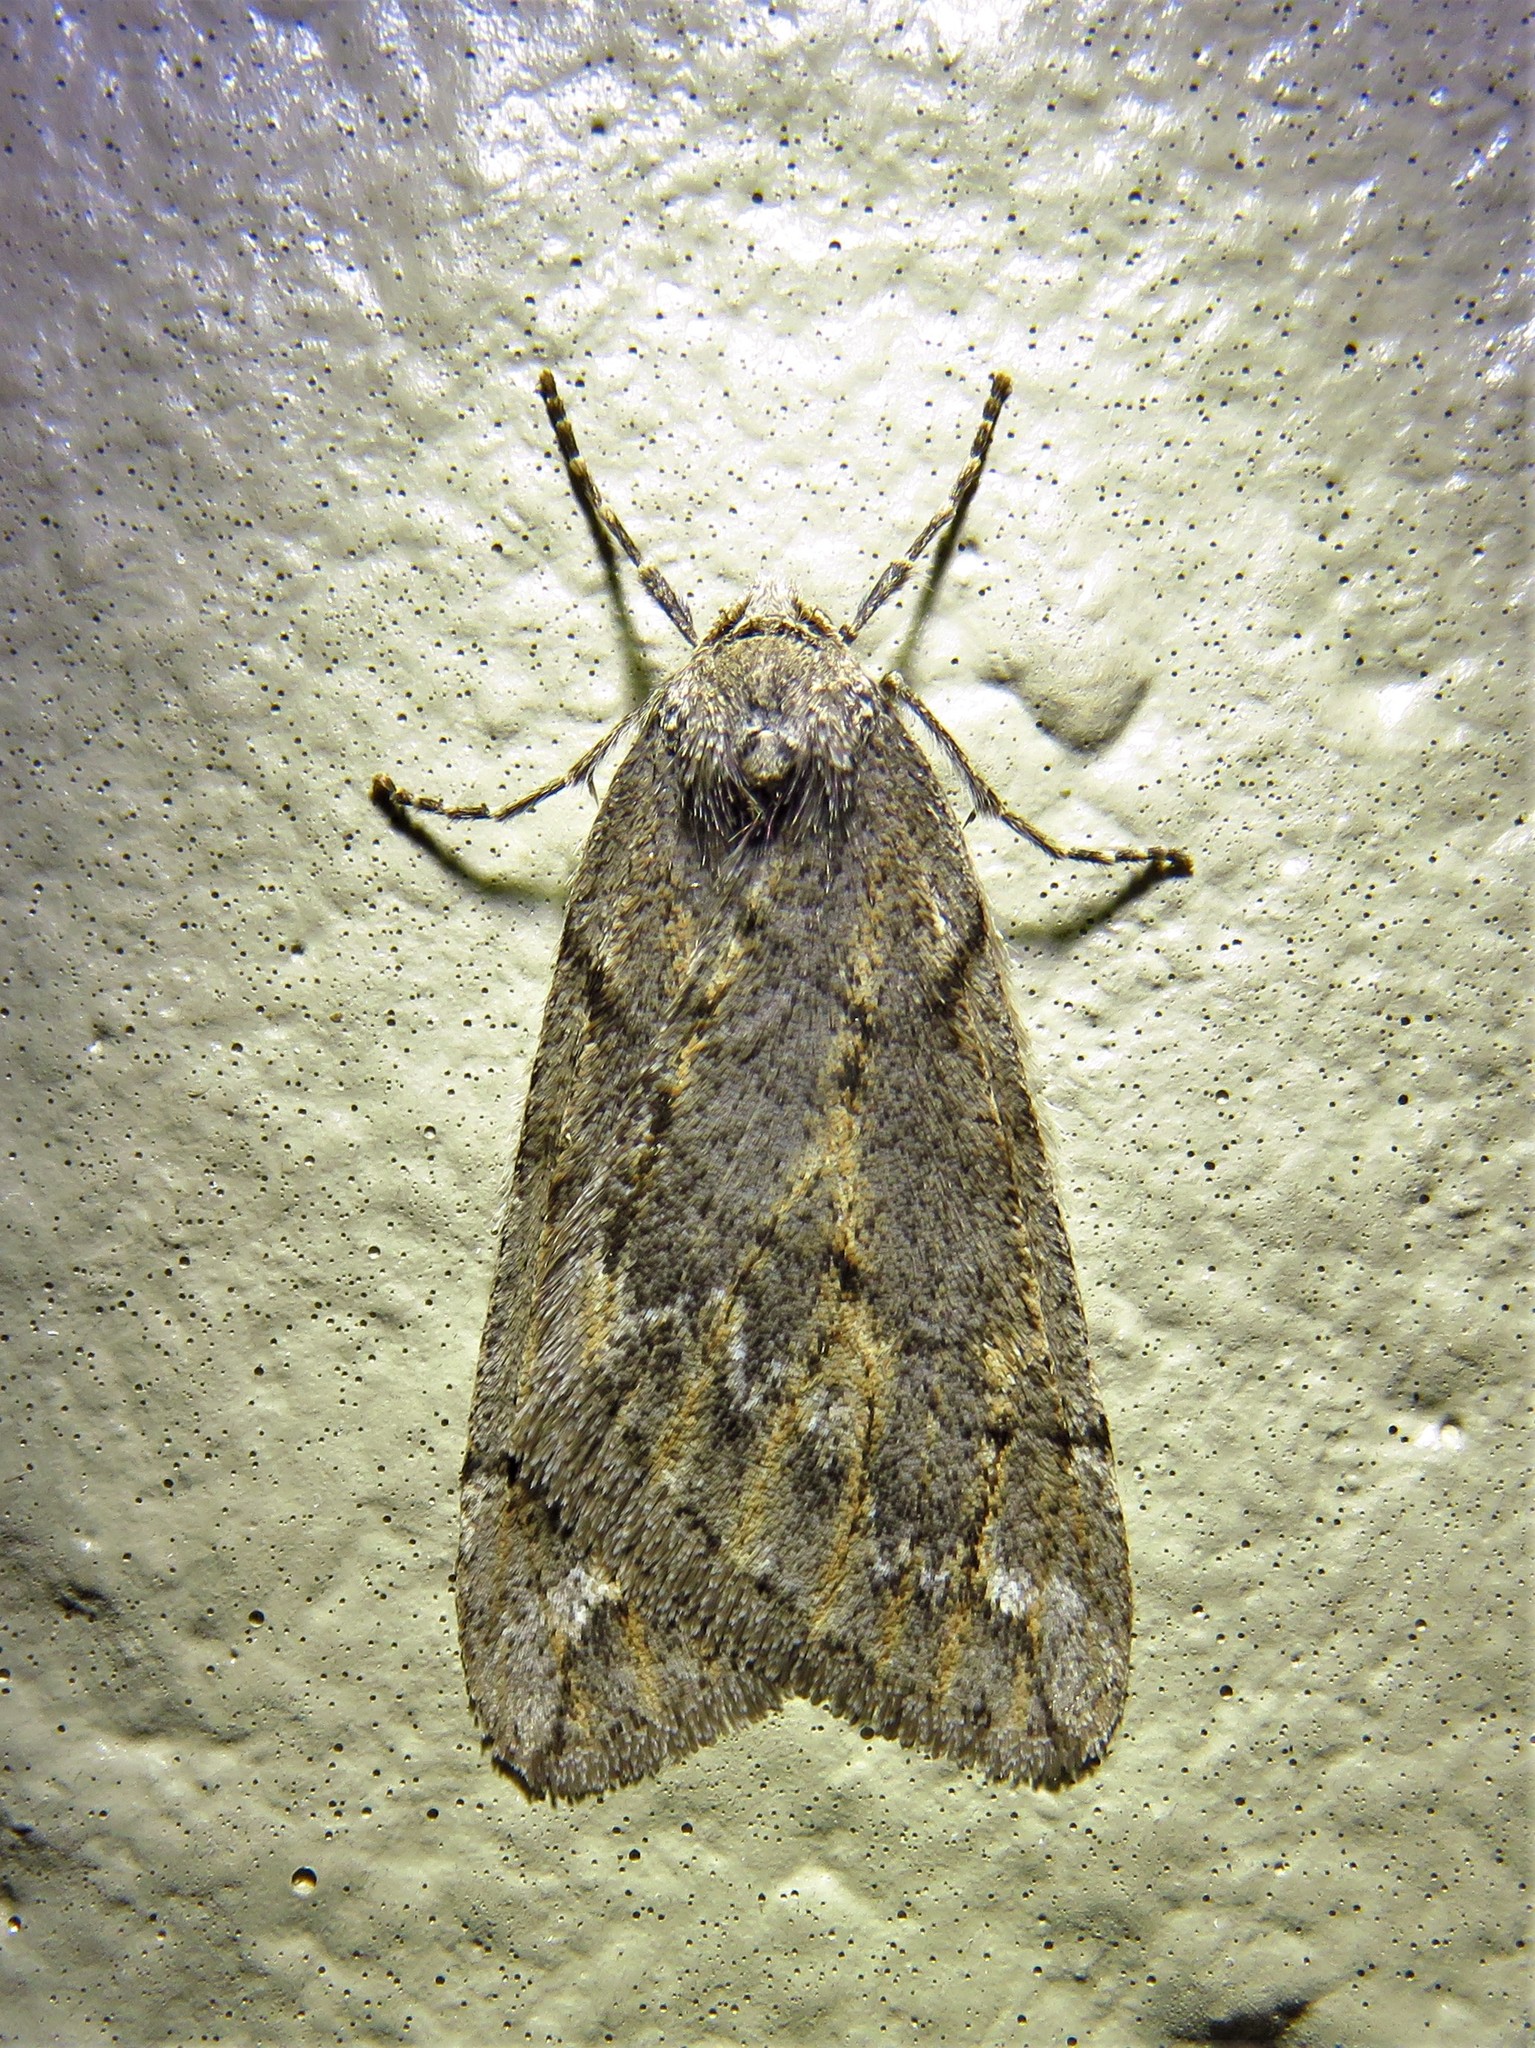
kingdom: Animalia
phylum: Arthropoda
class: Insecta
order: Lepidoptera
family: Geometridae
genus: Paleacrita
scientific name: Paleacrita vernata
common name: Spring cankerworm
